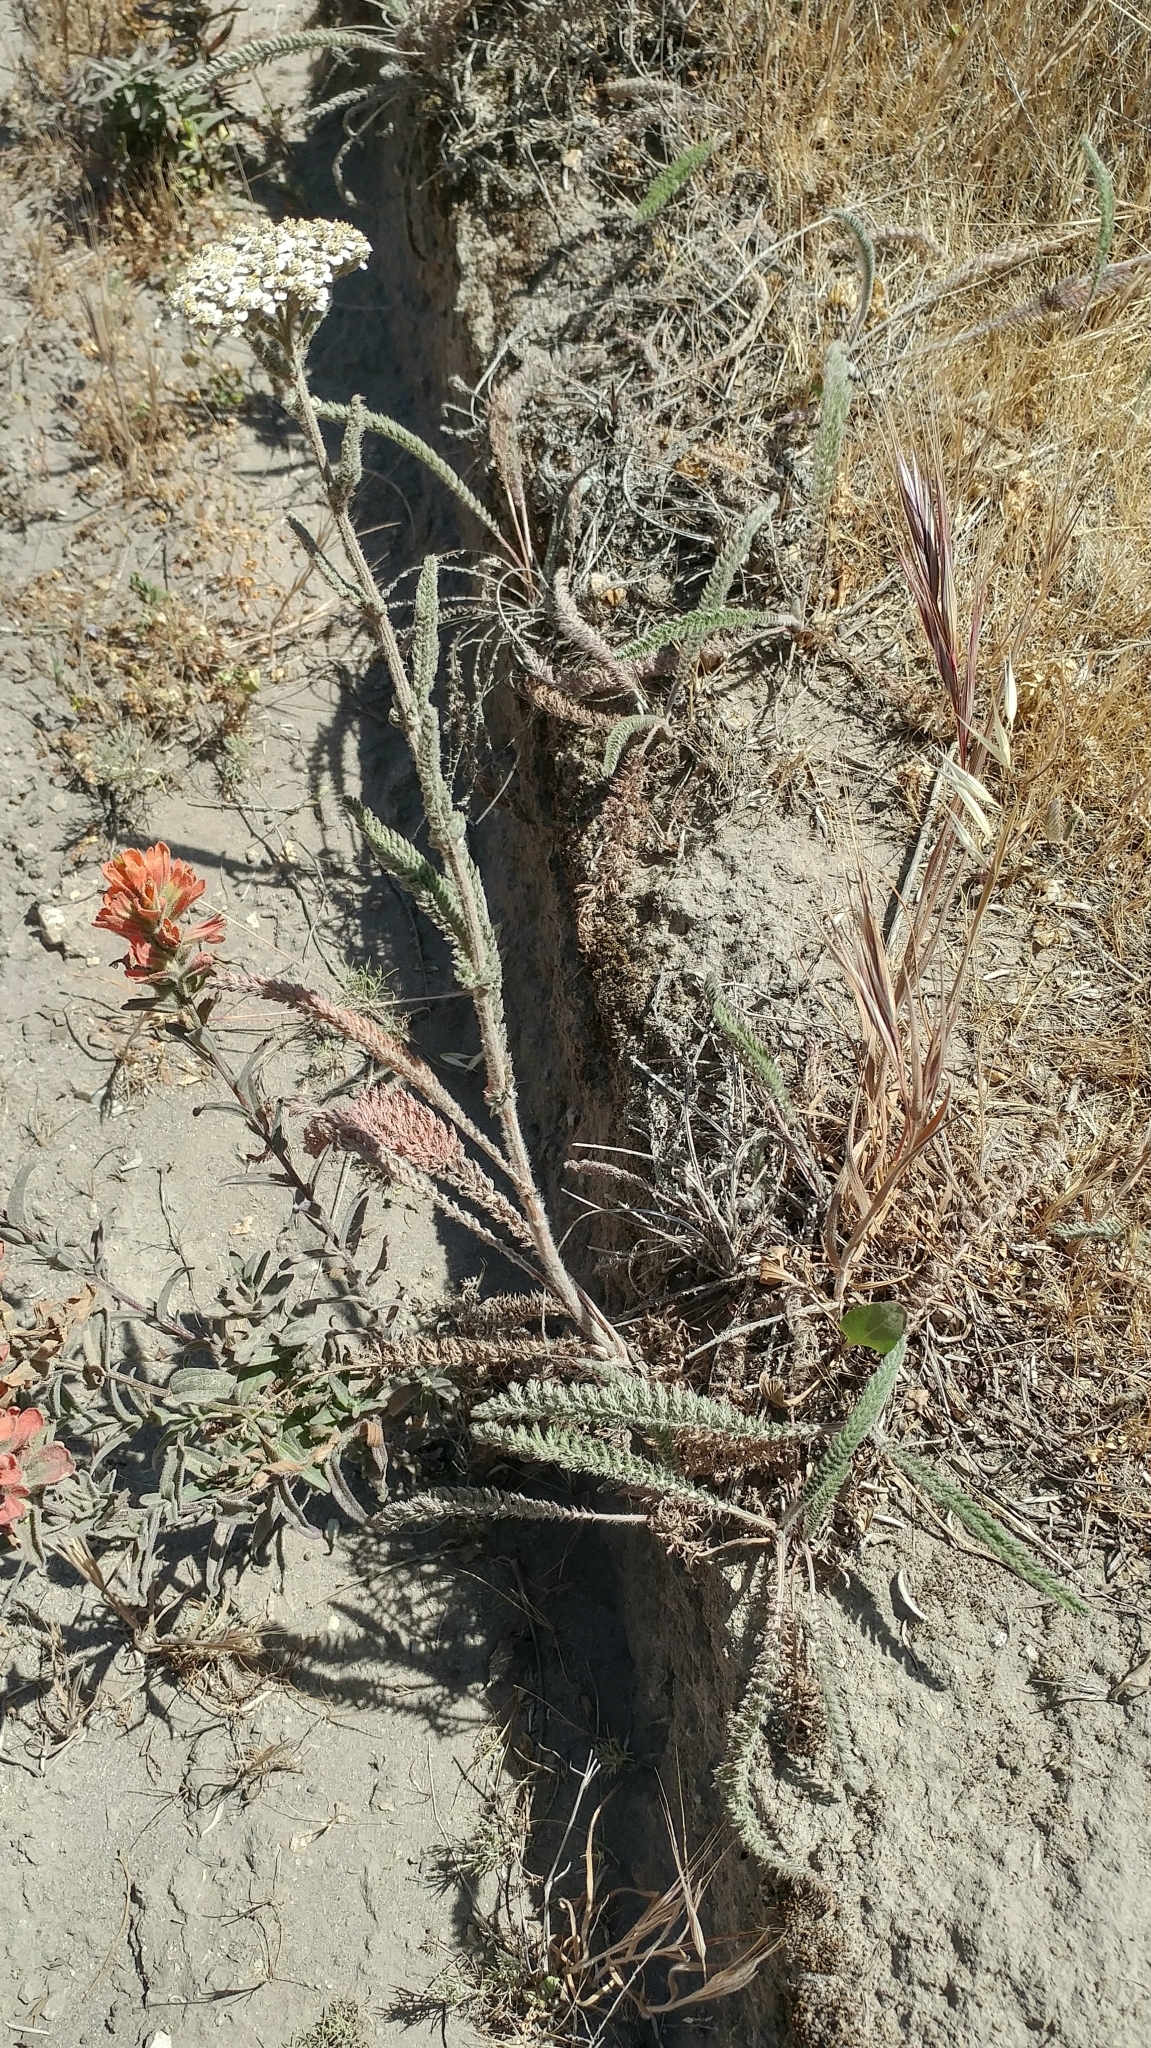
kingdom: Plantae
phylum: Tracheophyta
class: Magnoliopsida
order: Asterales
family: Asteraceae
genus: Achillea
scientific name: Achillea millefolium
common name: Yarrow
